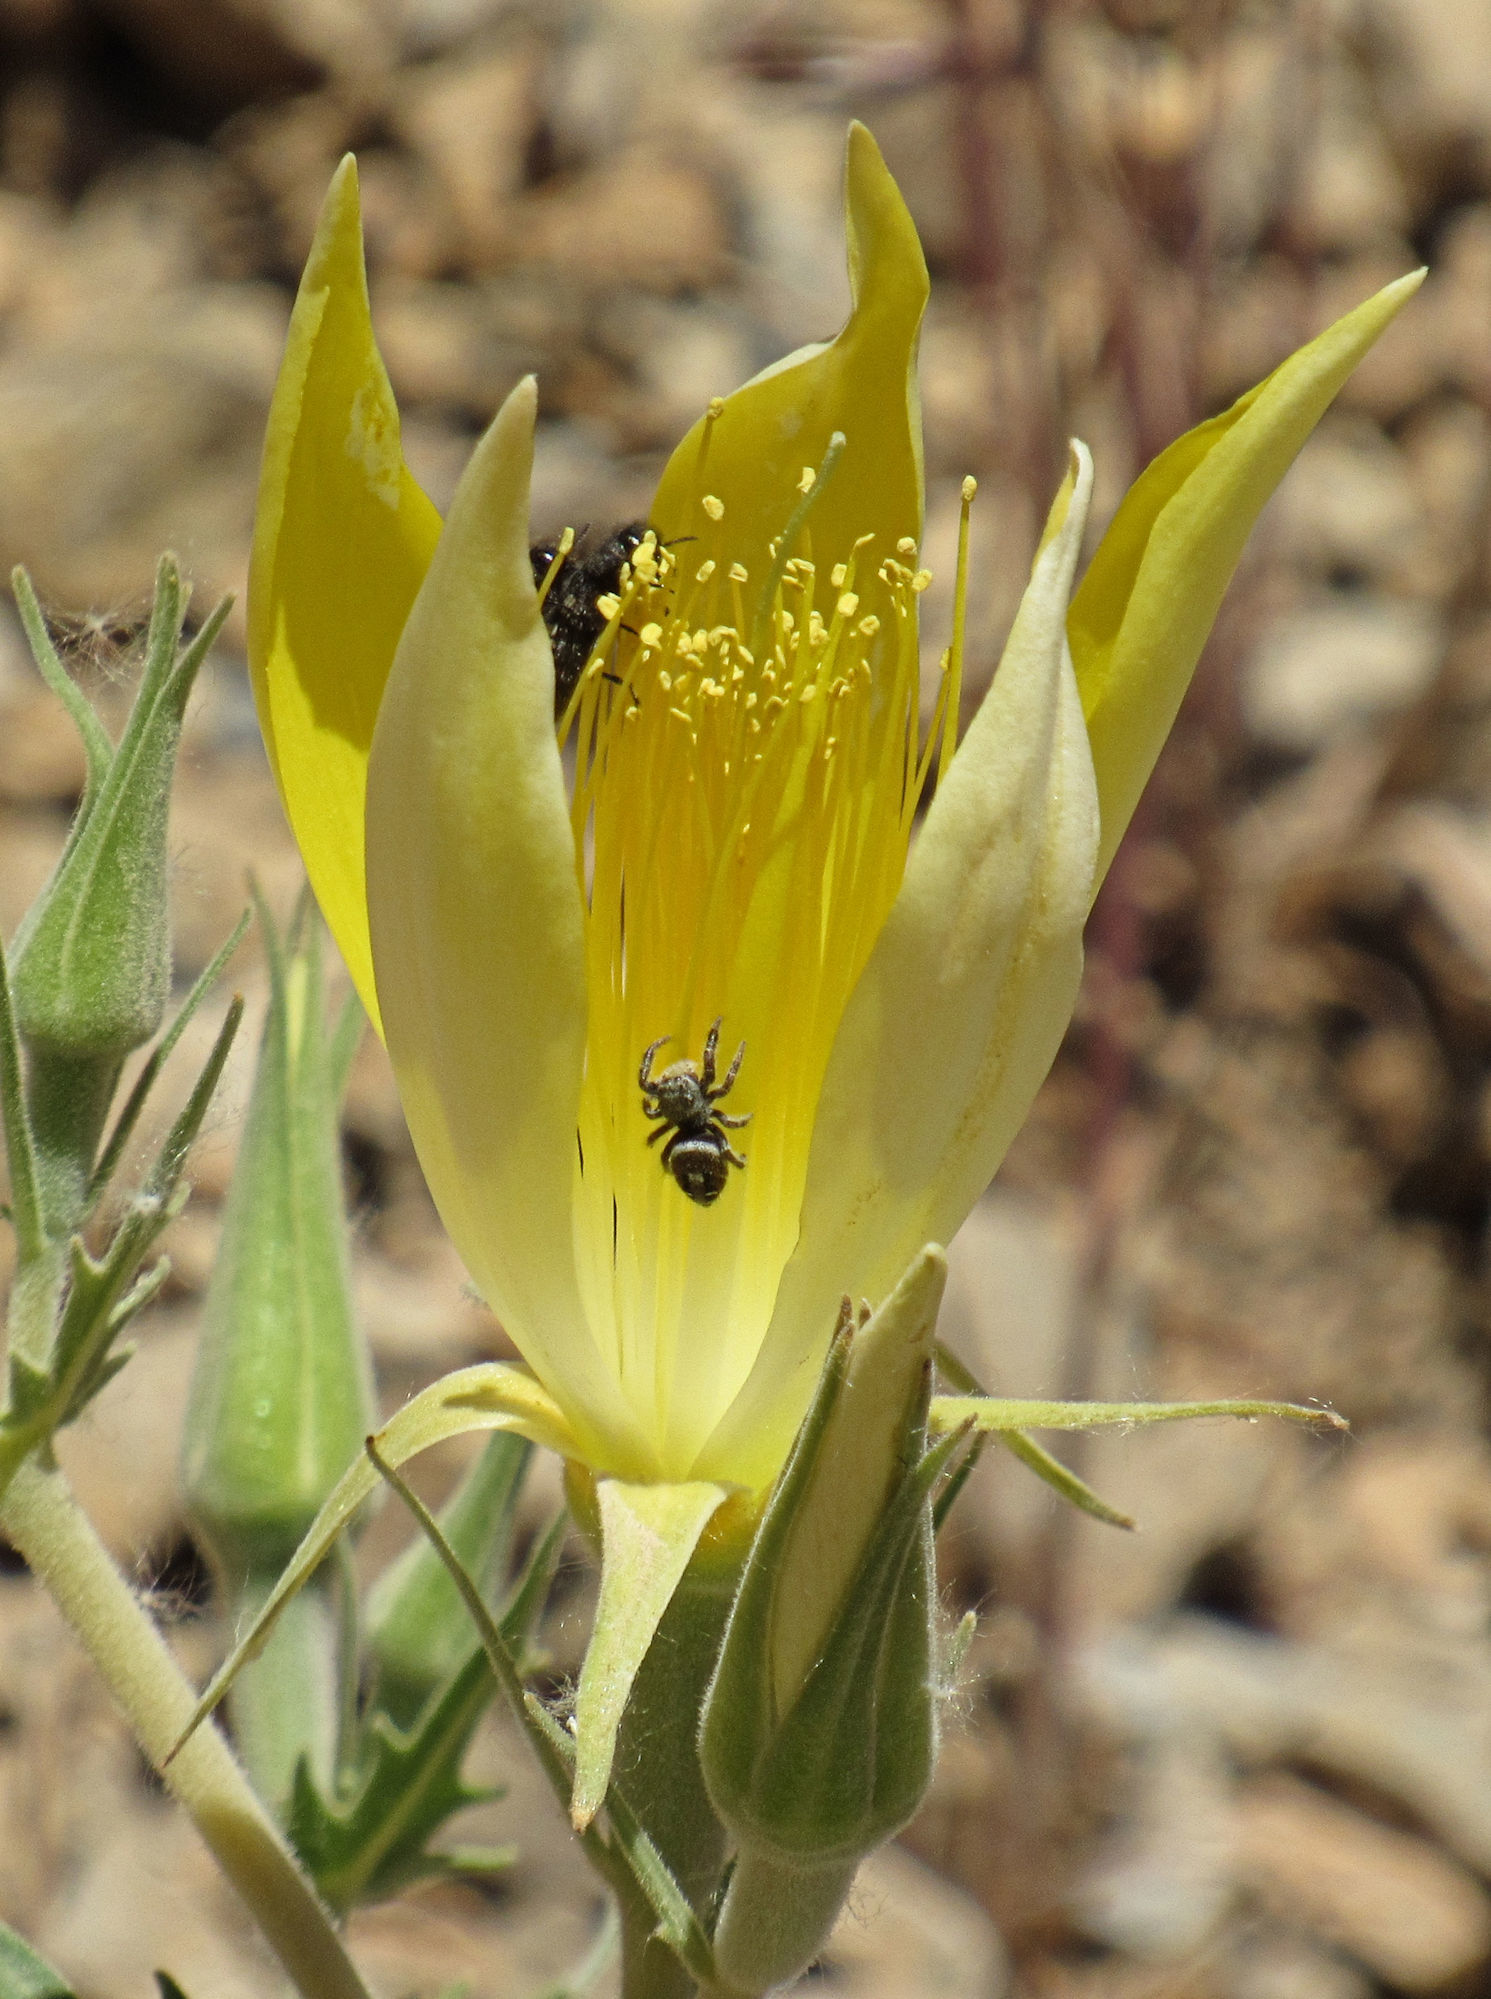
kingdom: Plantae
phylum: Tracheophyta
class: Magnoliopsida
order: Cornales
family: Loasaceae
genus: Mentzelia
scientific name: Mentzelia laevicaulis
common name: Smooth-stem blazingstar
